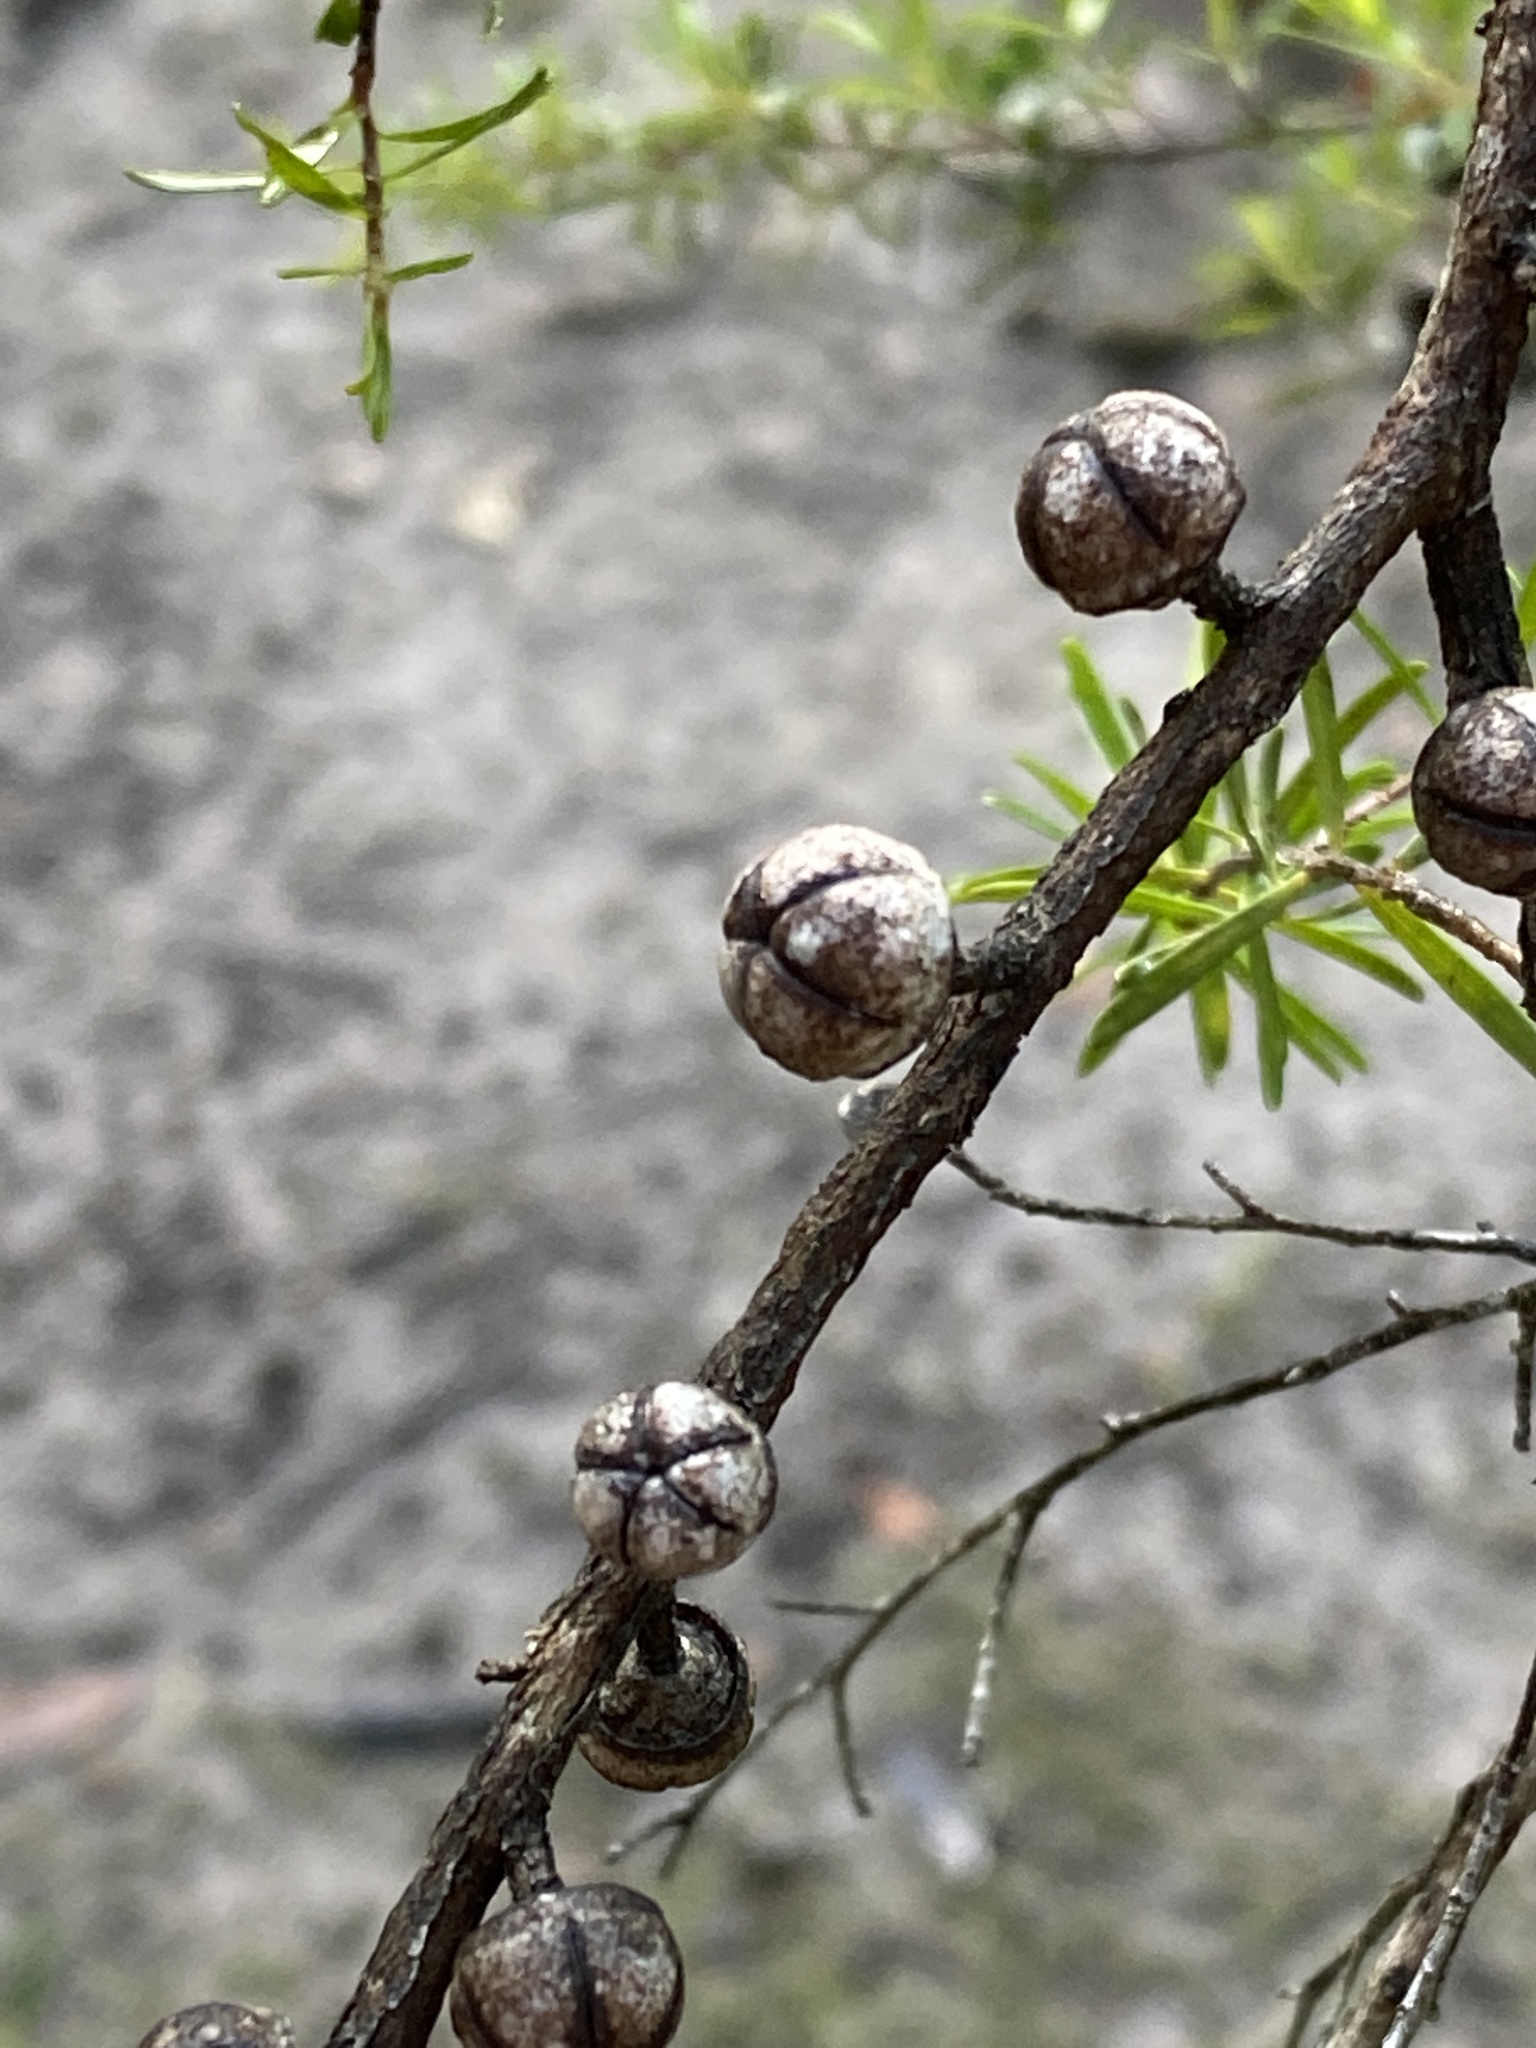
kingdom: Plantae
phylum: Tracheophyta
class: Magnoliopsida
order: Myrtales
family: Myrtaceae
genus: Leptospermum
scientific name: Leptospermum polygalifolium
